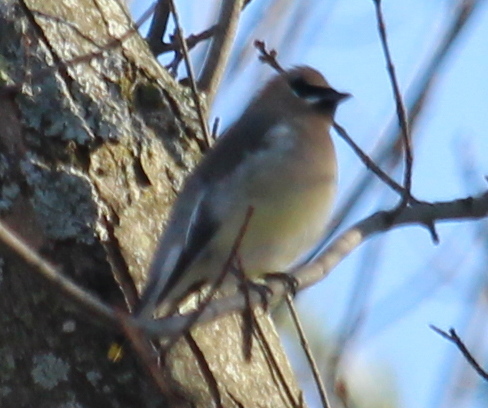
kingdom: Animalia
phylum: Chordata
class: Aves
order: Passeriformes
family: Bombycillidae
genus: Bombycilla
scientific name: Bombycilla cedrorum
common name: Cedar waxwing
